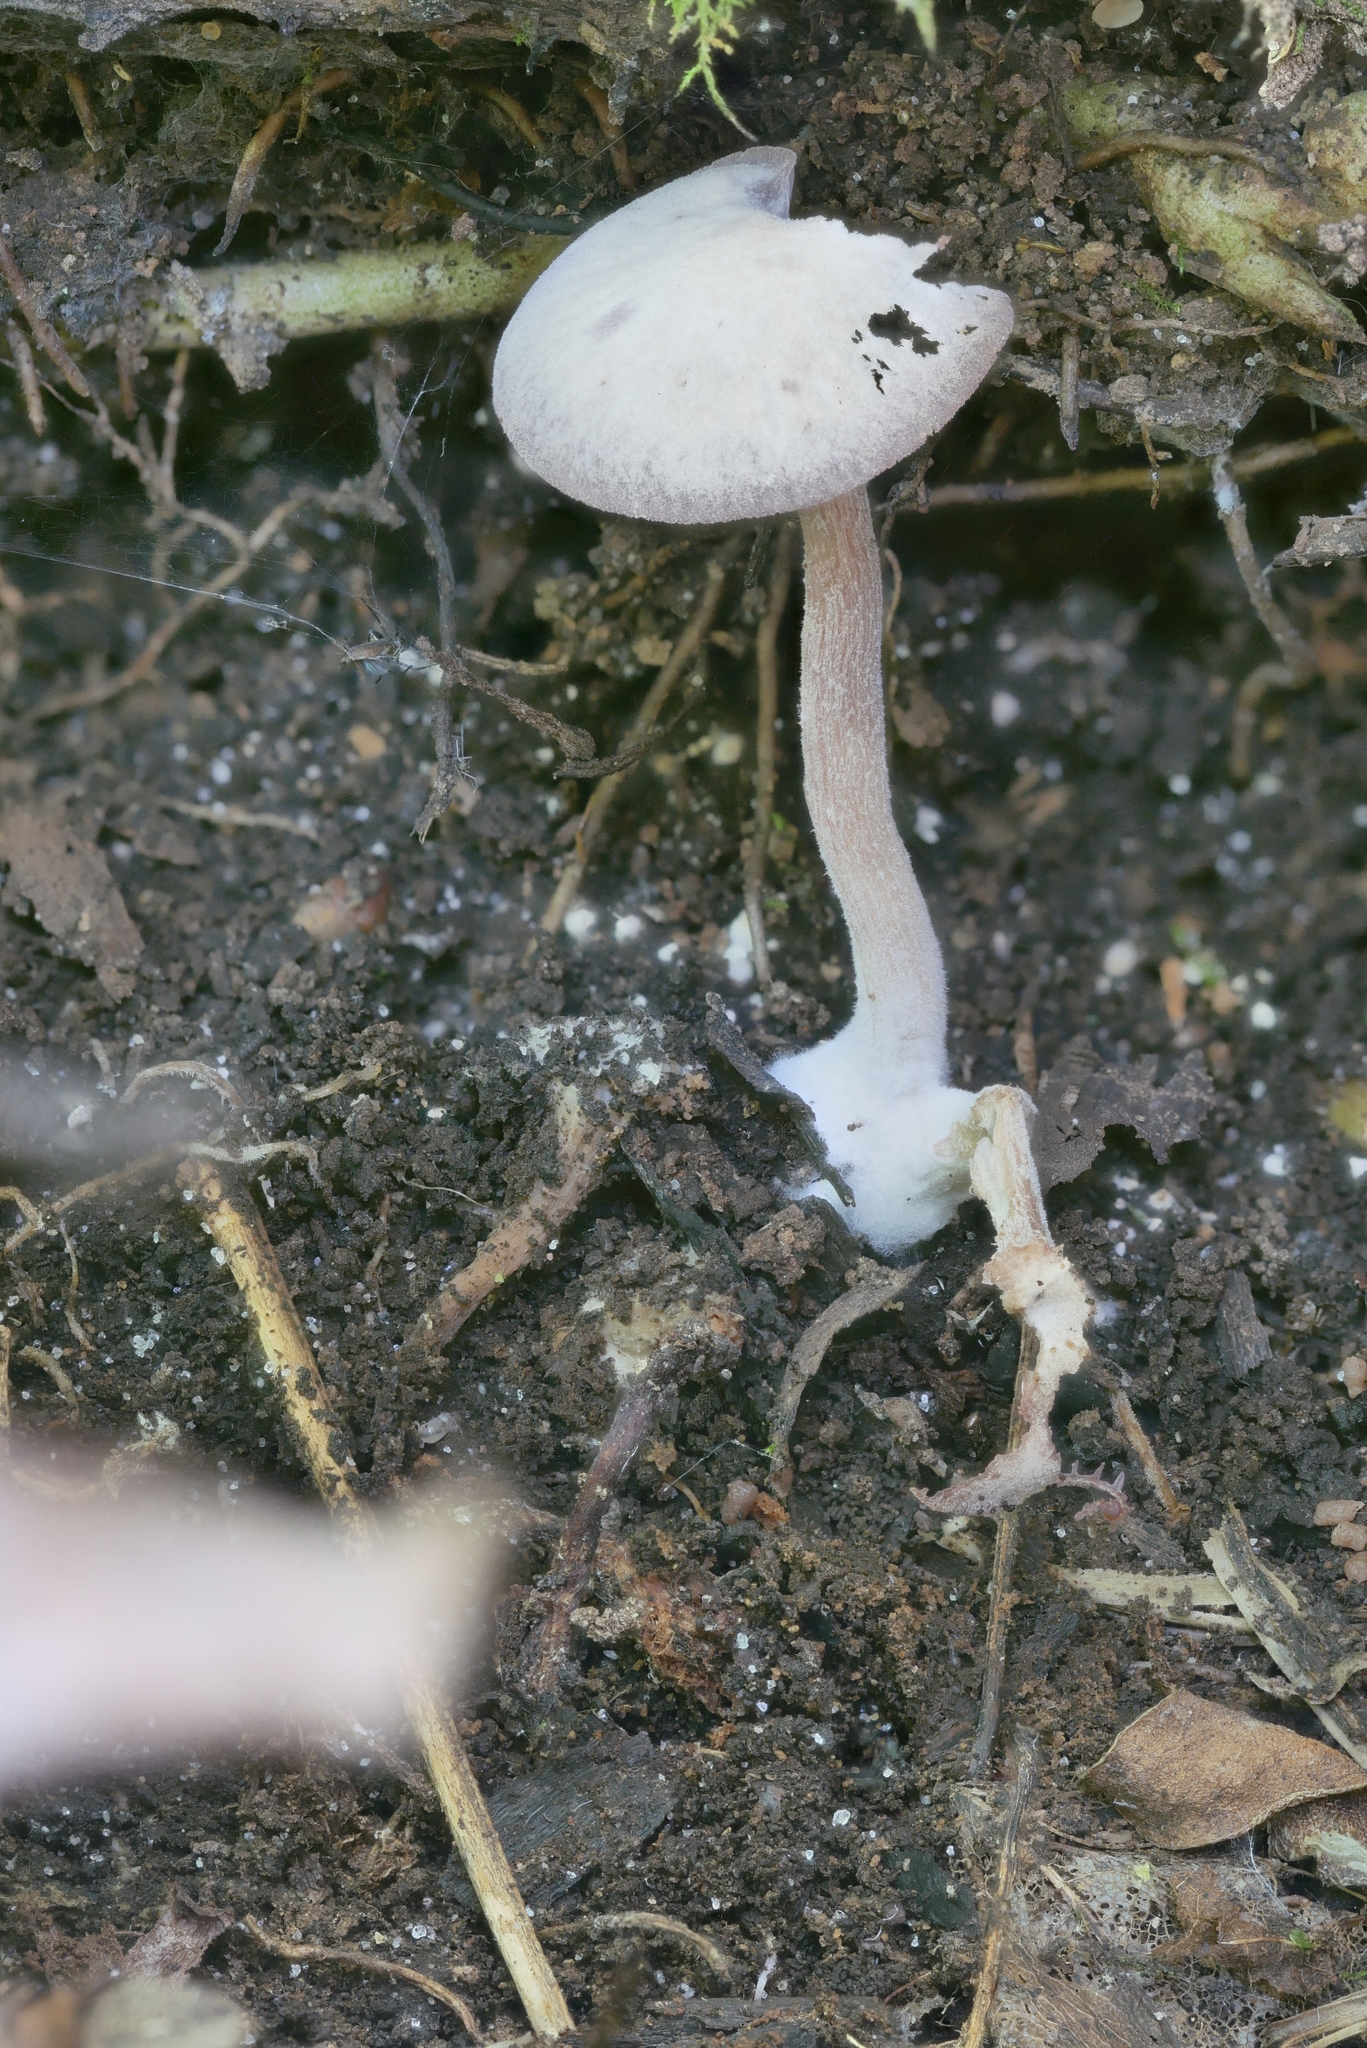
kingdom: Fungi
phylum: Basidiomycota
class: Agaricomycetes
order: Agaricales
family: Hydnangiaceae
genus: Laccaria
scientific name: Laccaria amethystina
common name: Amethyst deceiver
